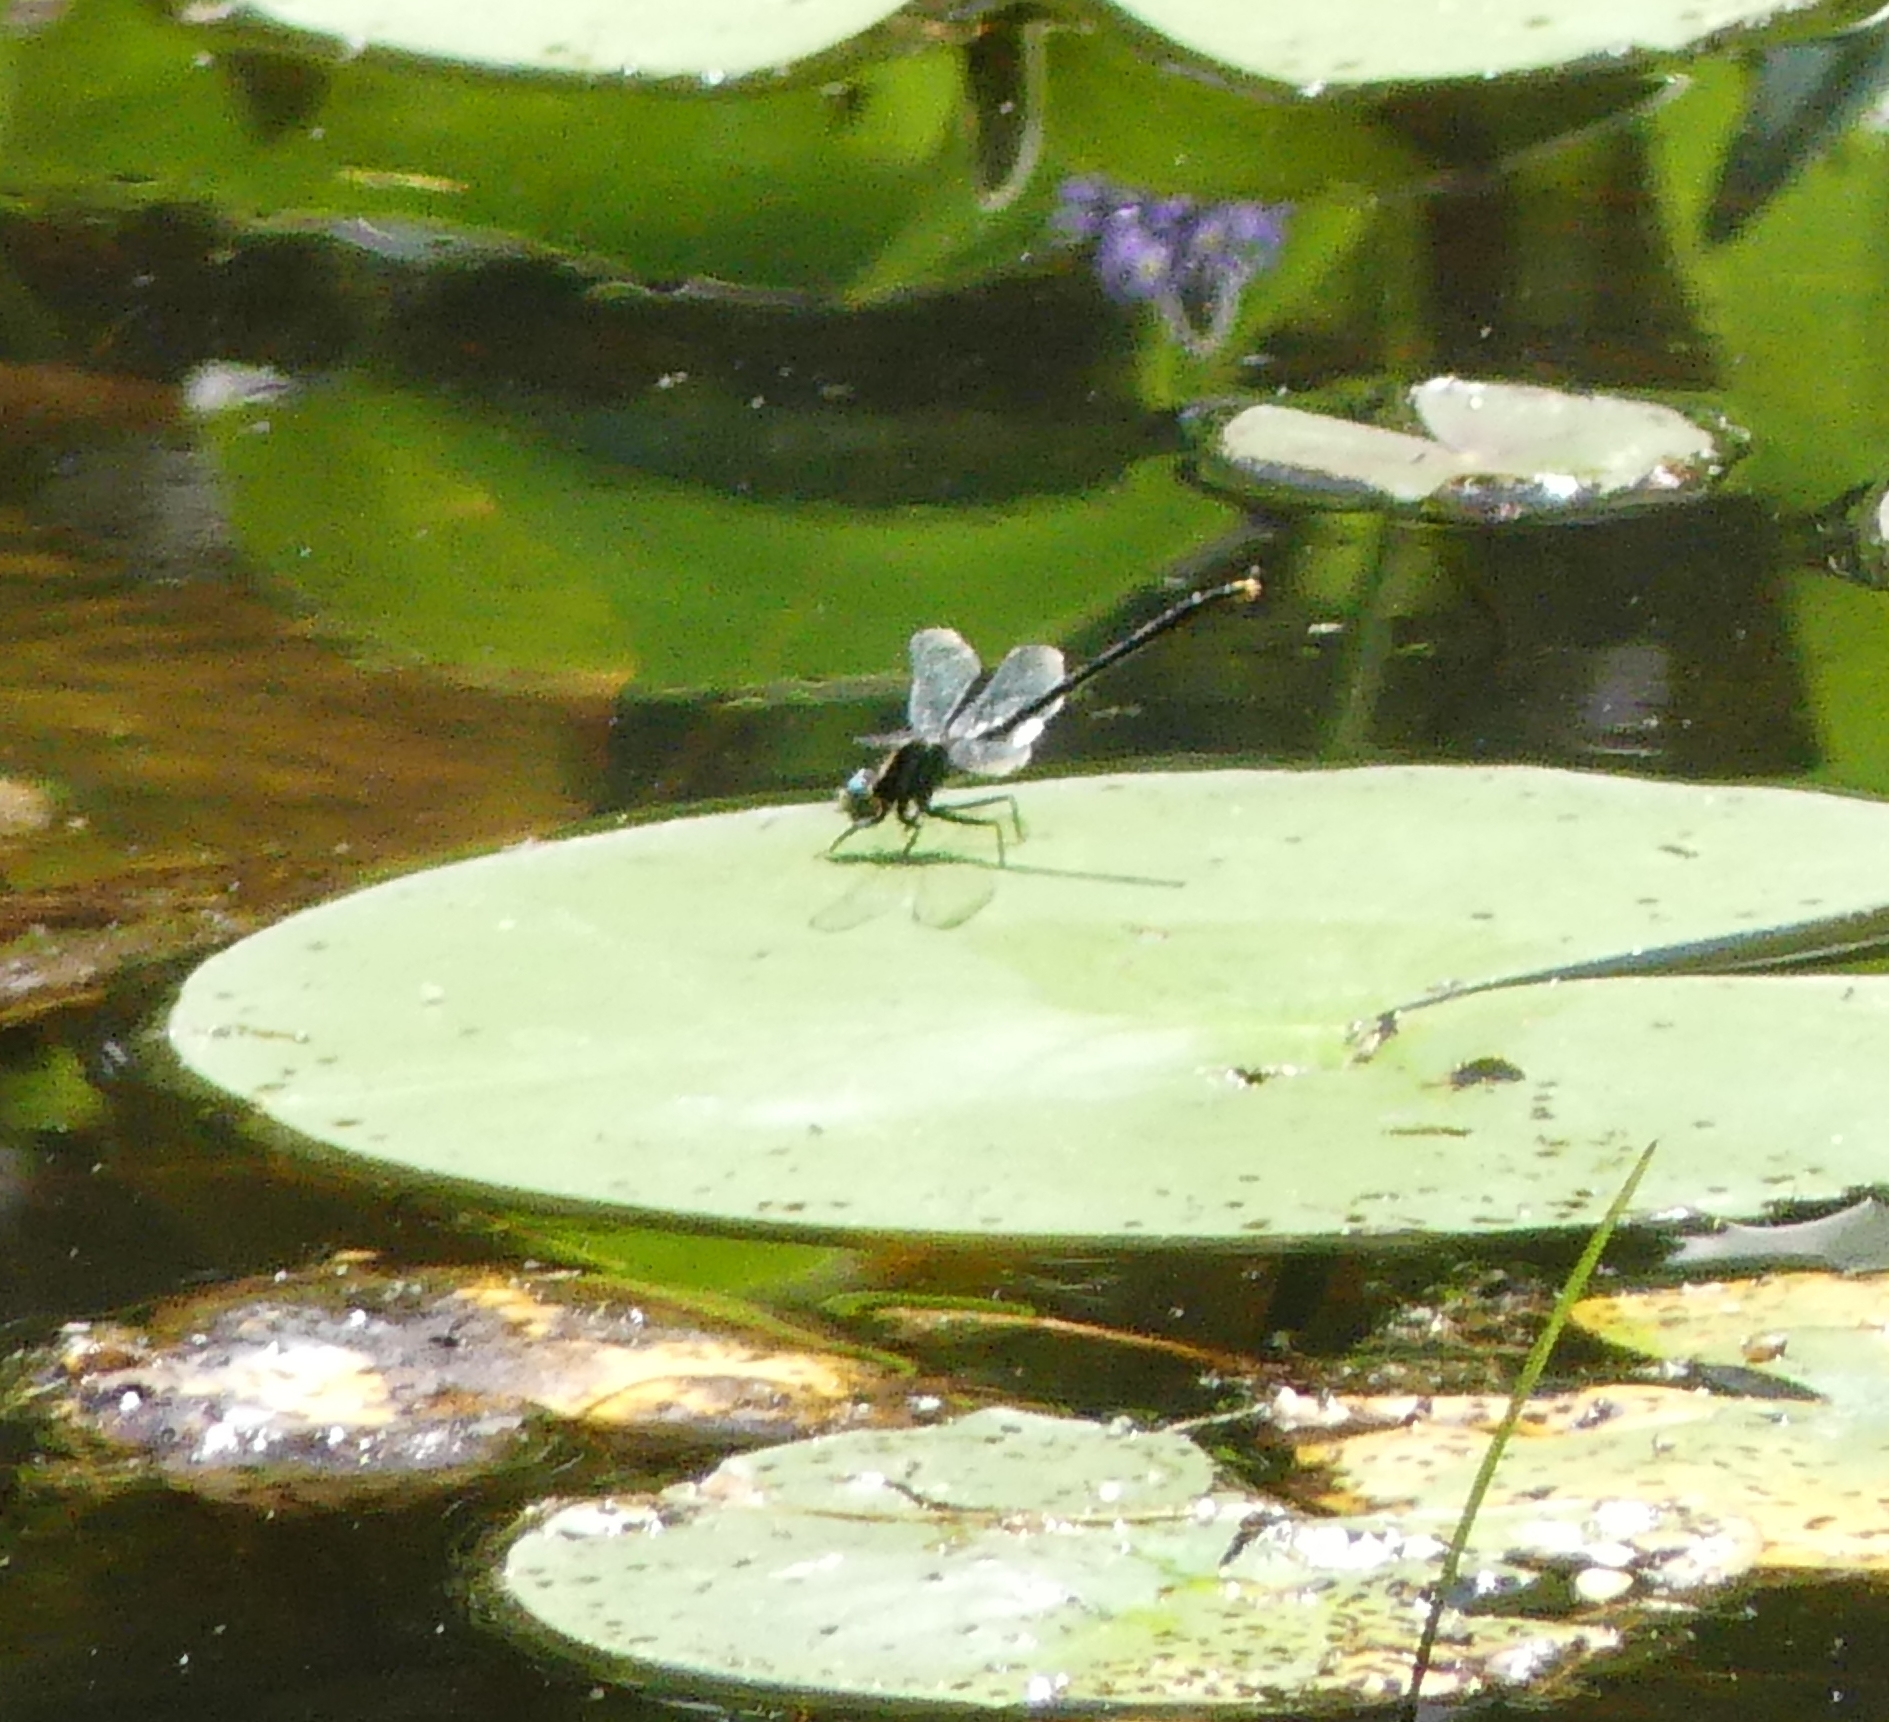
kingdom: Animalia
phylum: Arthropoda
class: Insecta
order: Odonata
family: Gomphidae
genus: Arigomphus
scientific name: Arigomphus furcifer
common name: Lilypad clubtail
